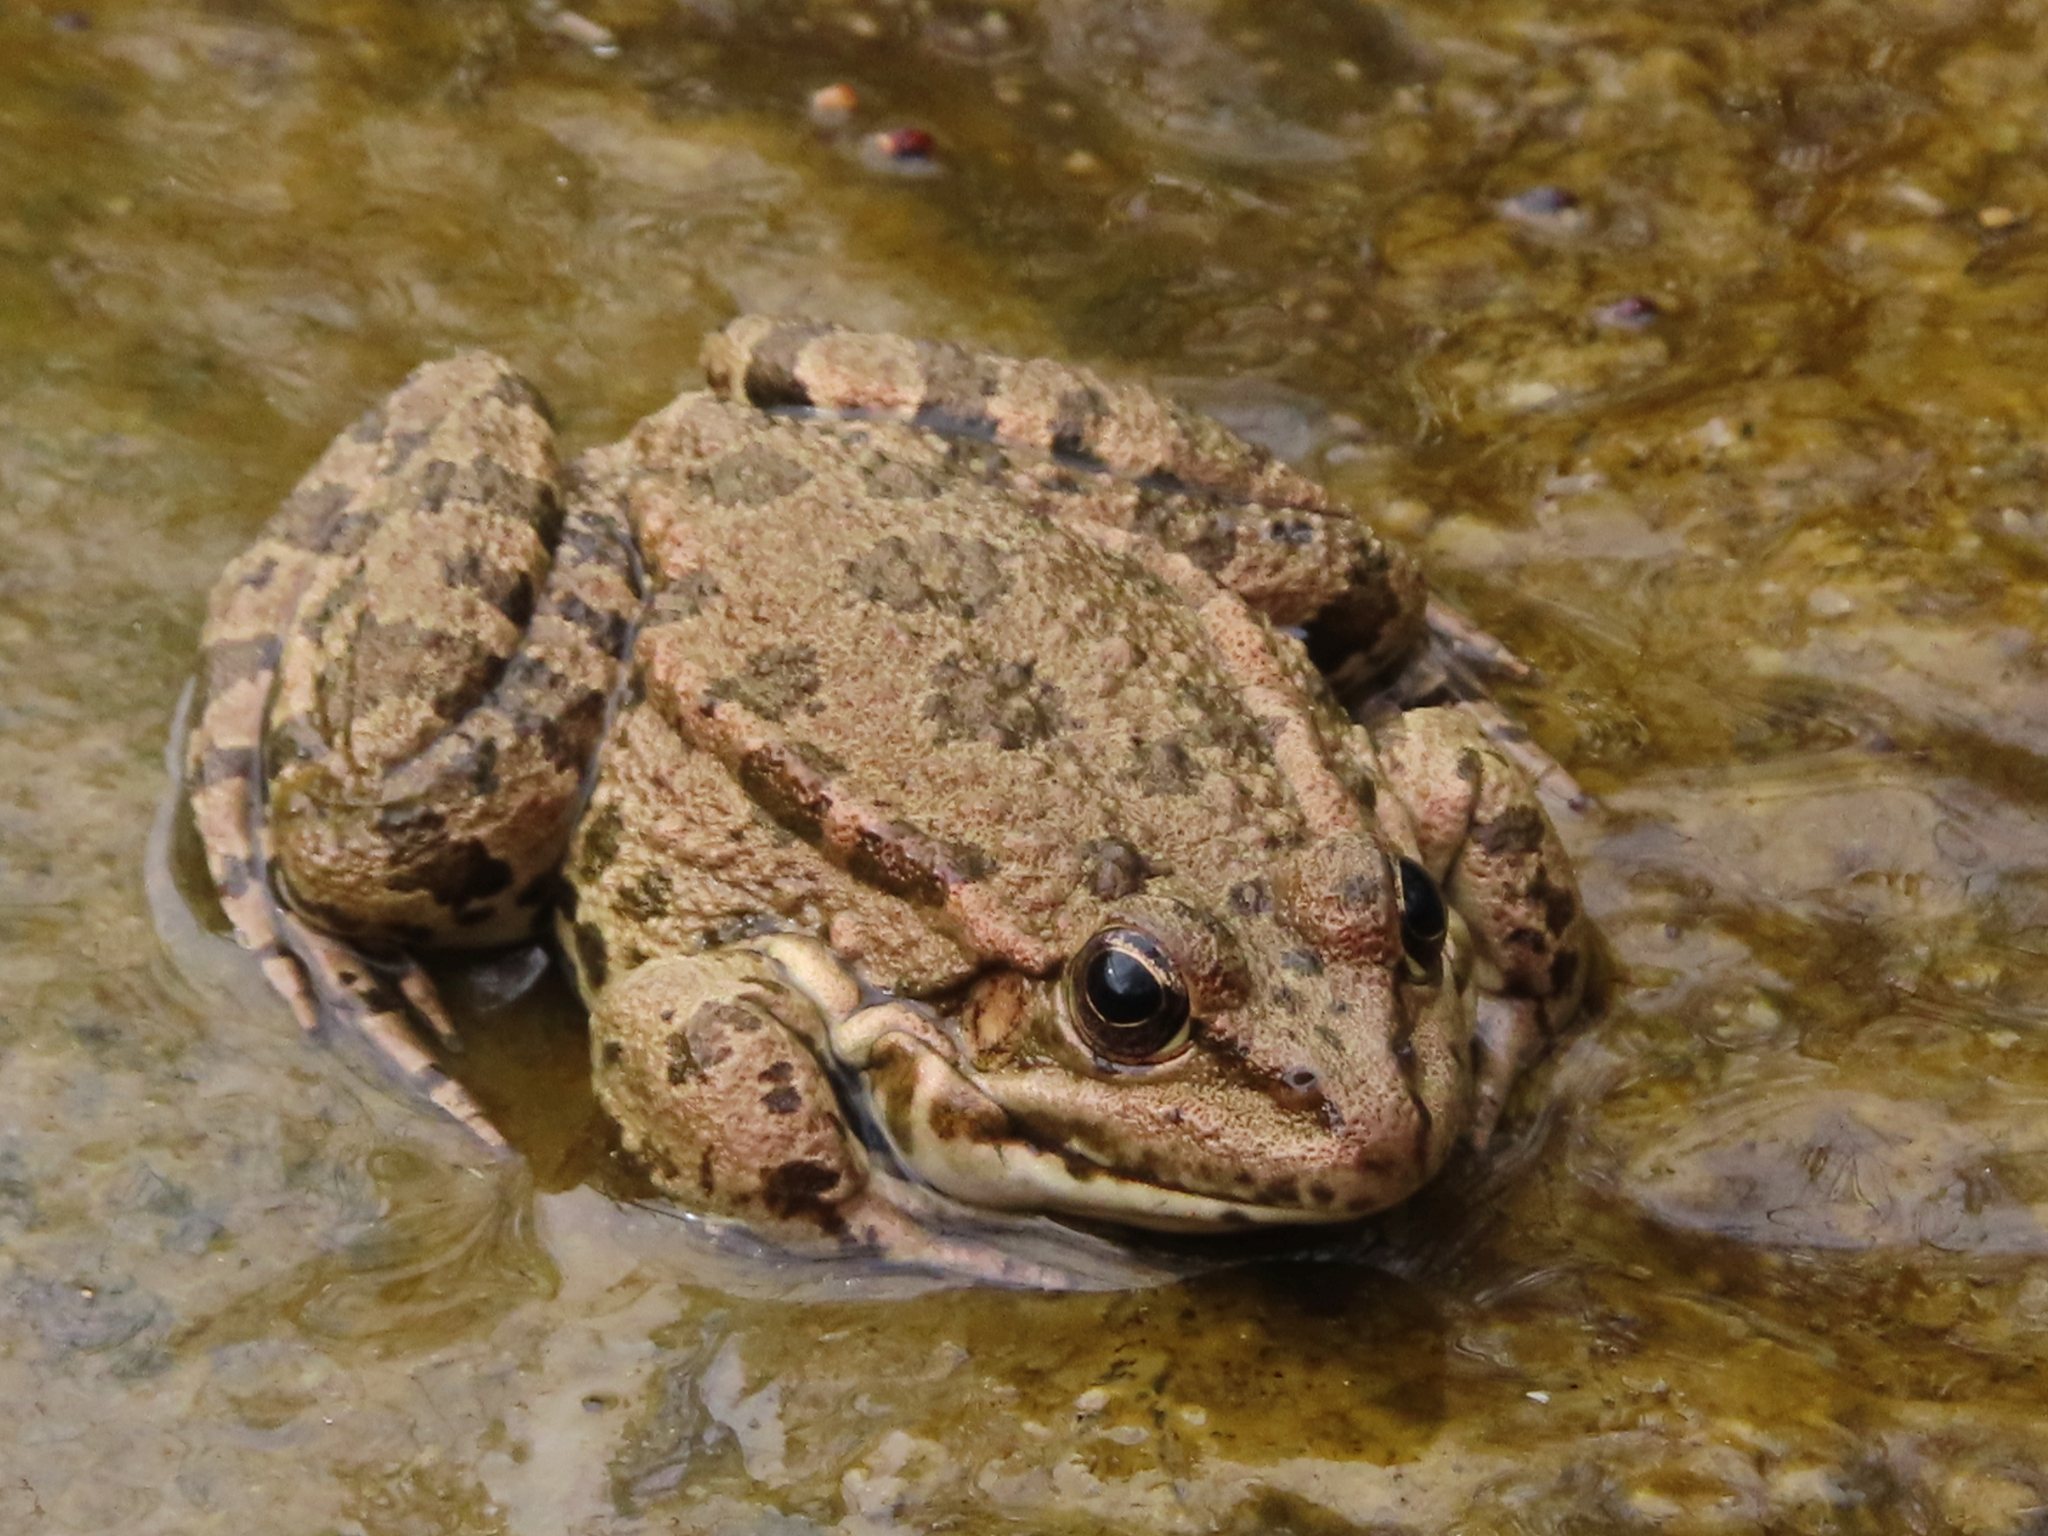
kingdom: Animalia
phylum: Chordata
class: Amphibia
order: Anura
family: Ranidae
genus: Pelophylax
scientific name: Pelophylax ridibundus
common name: Marsh frog
